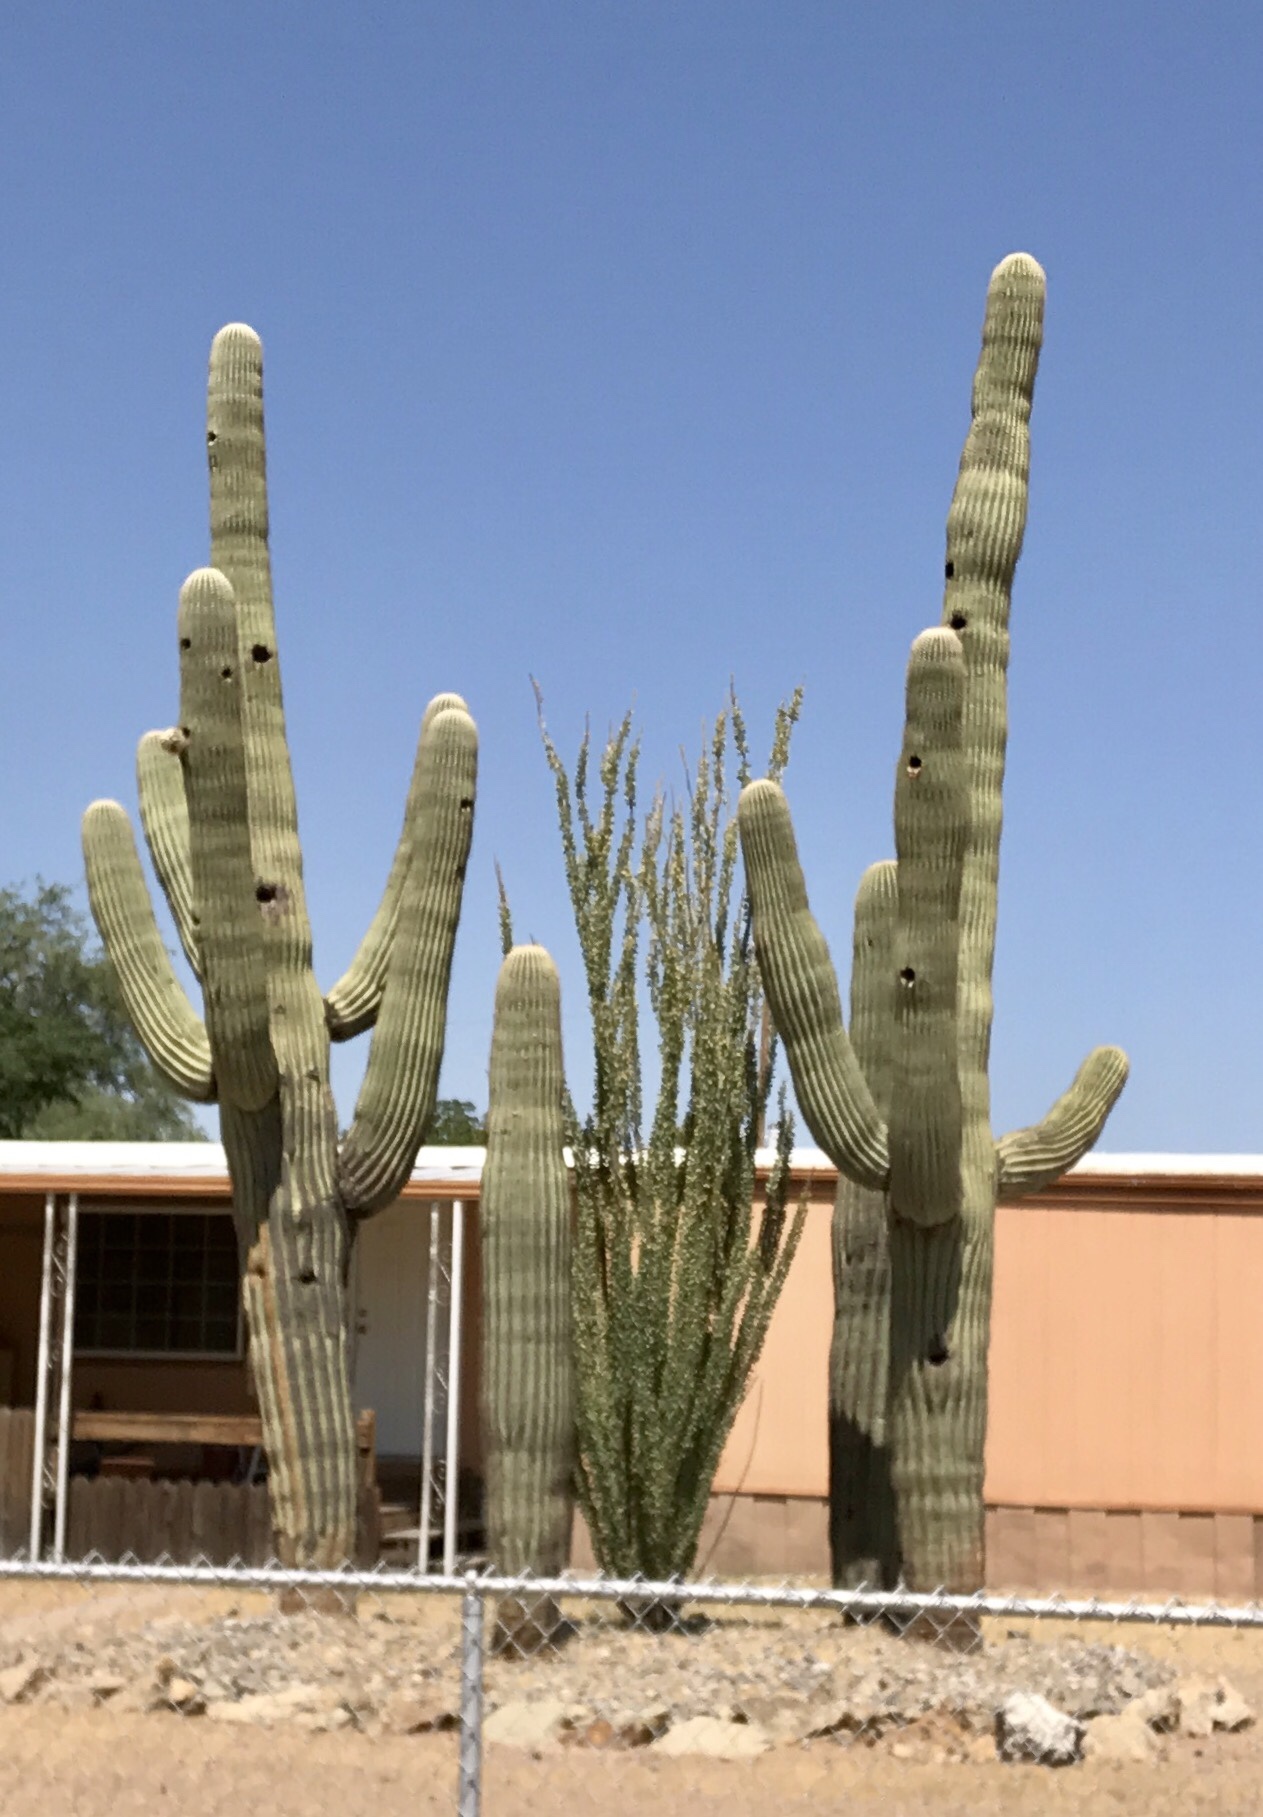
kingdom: Plantae
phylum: Tracheophyta
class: Magnoliopsida
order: Caryophyllales
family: Cactaceae
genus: Carnegiea
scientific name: Carnegiea gigantea
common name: Saguaro
